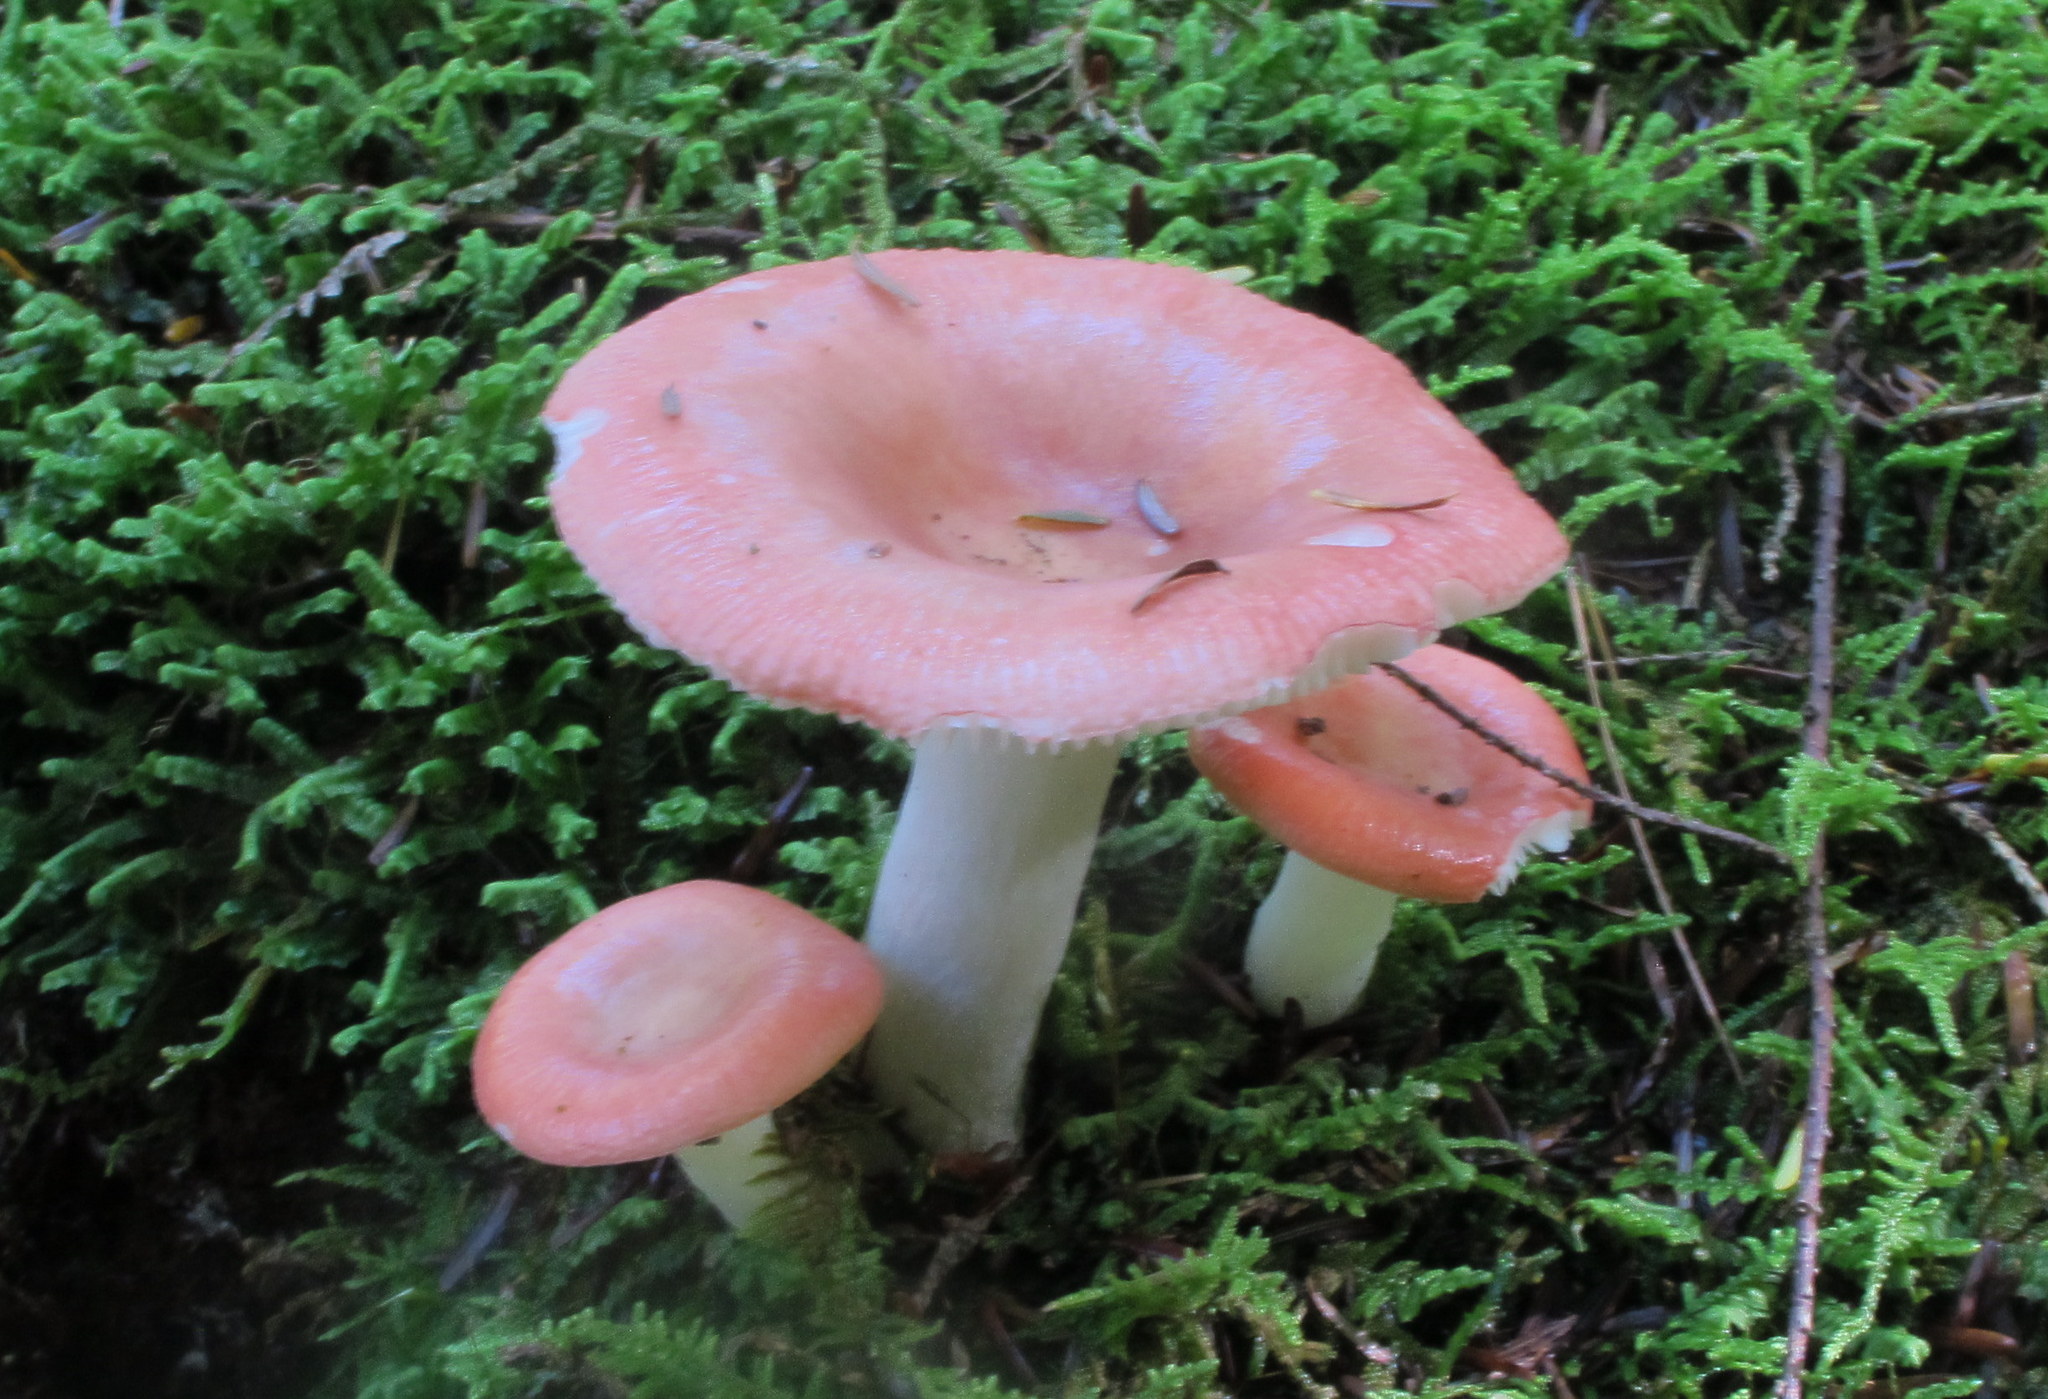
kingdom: Fungi
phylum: Basidiomycota
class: Agaricomycetes
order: Russulales
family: Russulaceae
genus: Russula
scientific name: Russula aquosa
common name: Red swamp brittlegill
